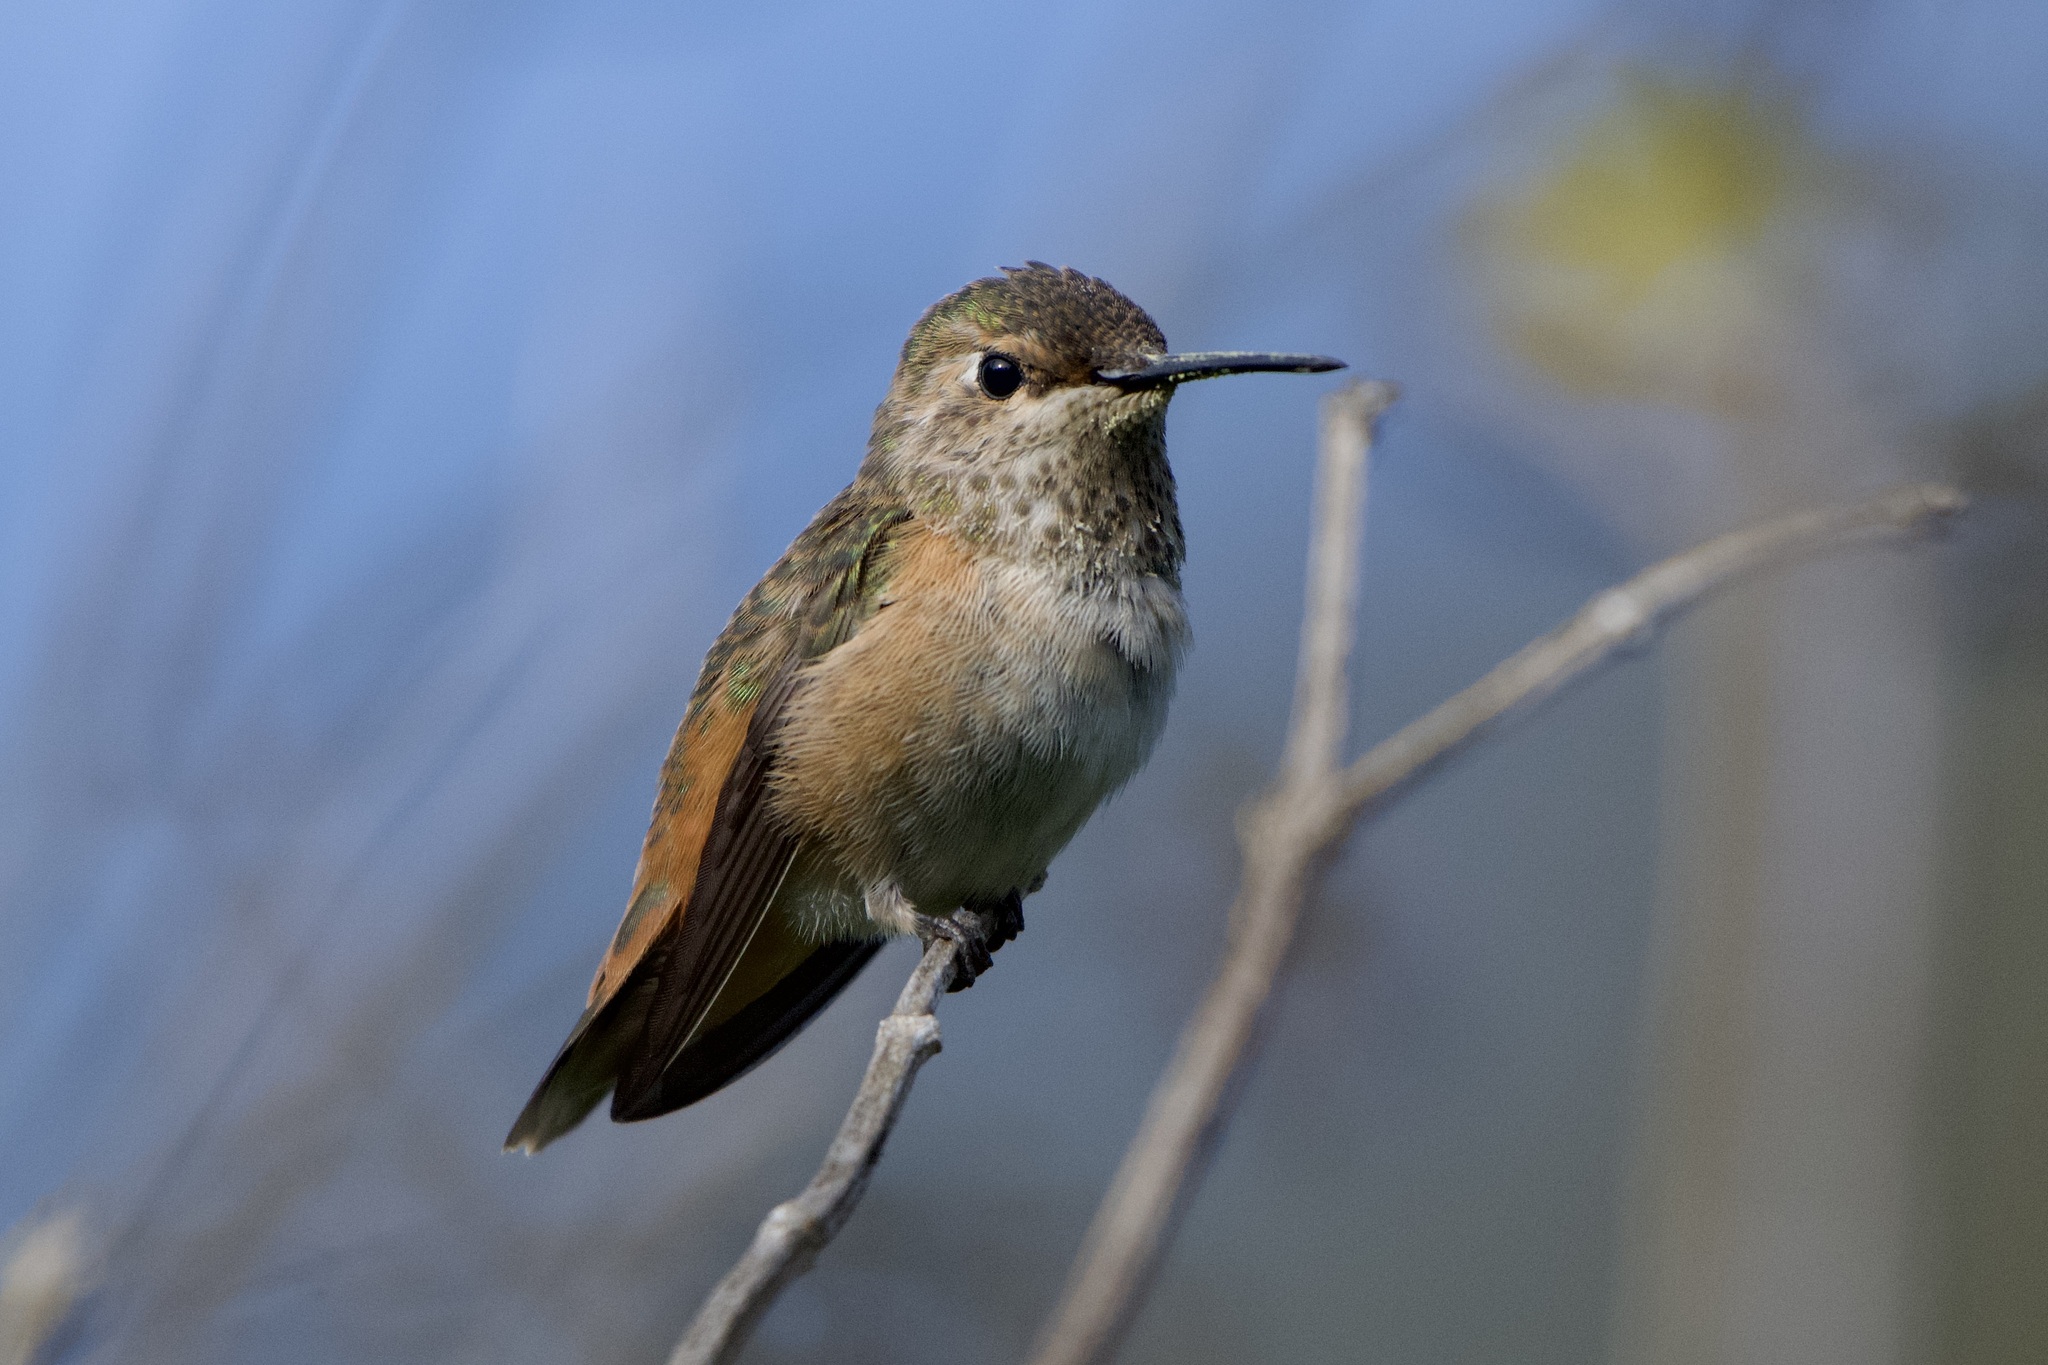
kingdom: Animalia
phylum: Chordata
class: Aves
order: Apodiformes
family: Trochilidae
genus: Selasphorus
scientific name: Selasphorus sasin
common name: Allen's hummingbird
